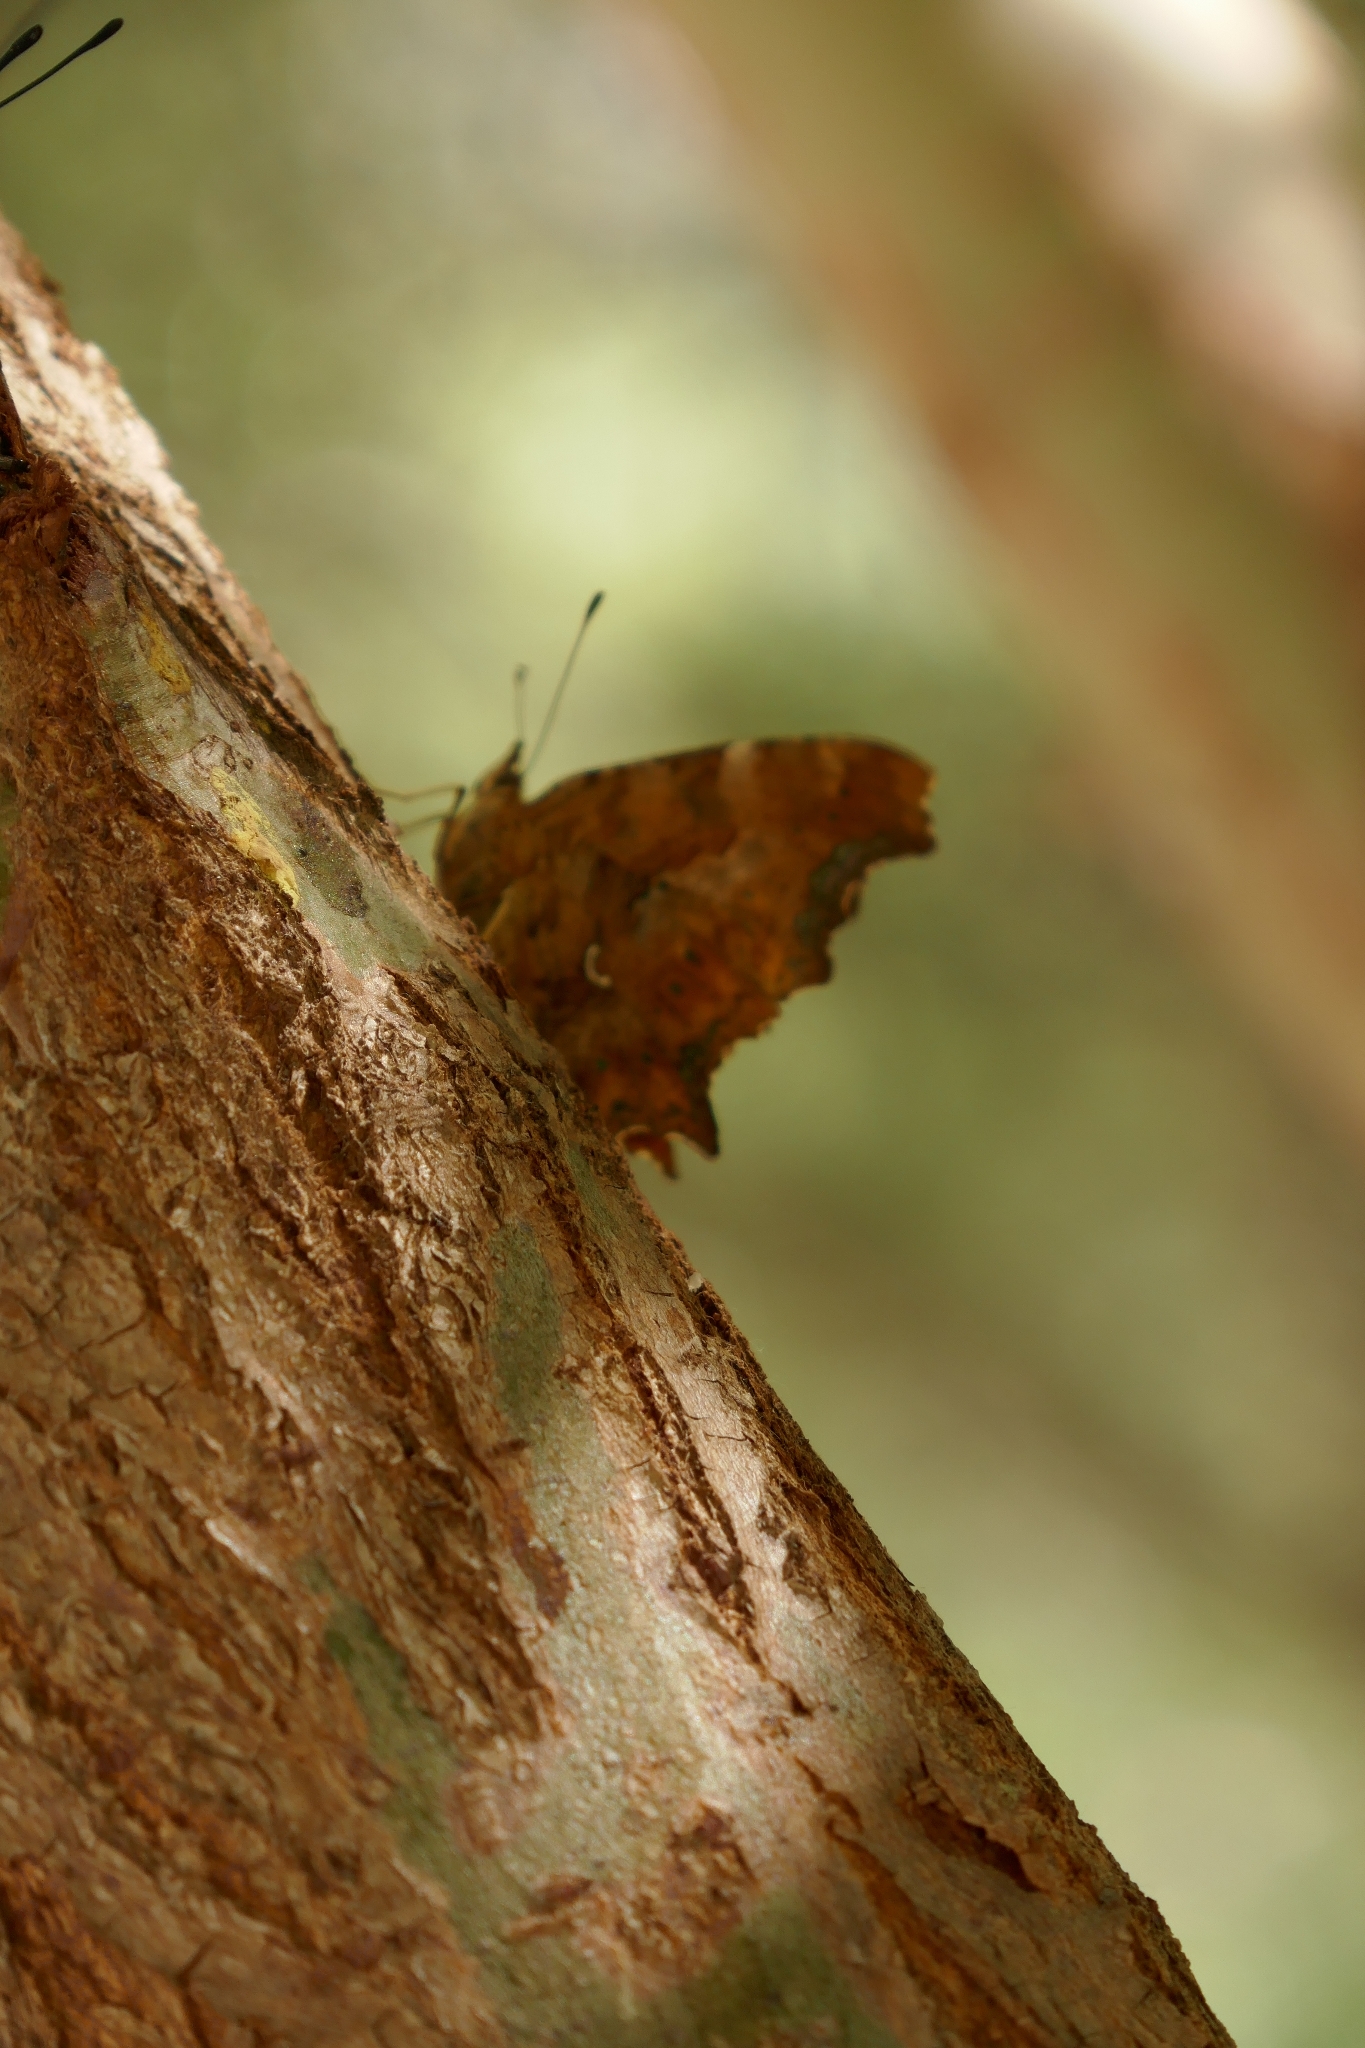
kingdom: Animalia
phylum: Arthropoda
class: Insecta
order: Lepidoptera
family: Nymphalidae
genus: Polygonia
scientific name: Polygonia c-album
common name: Comma
